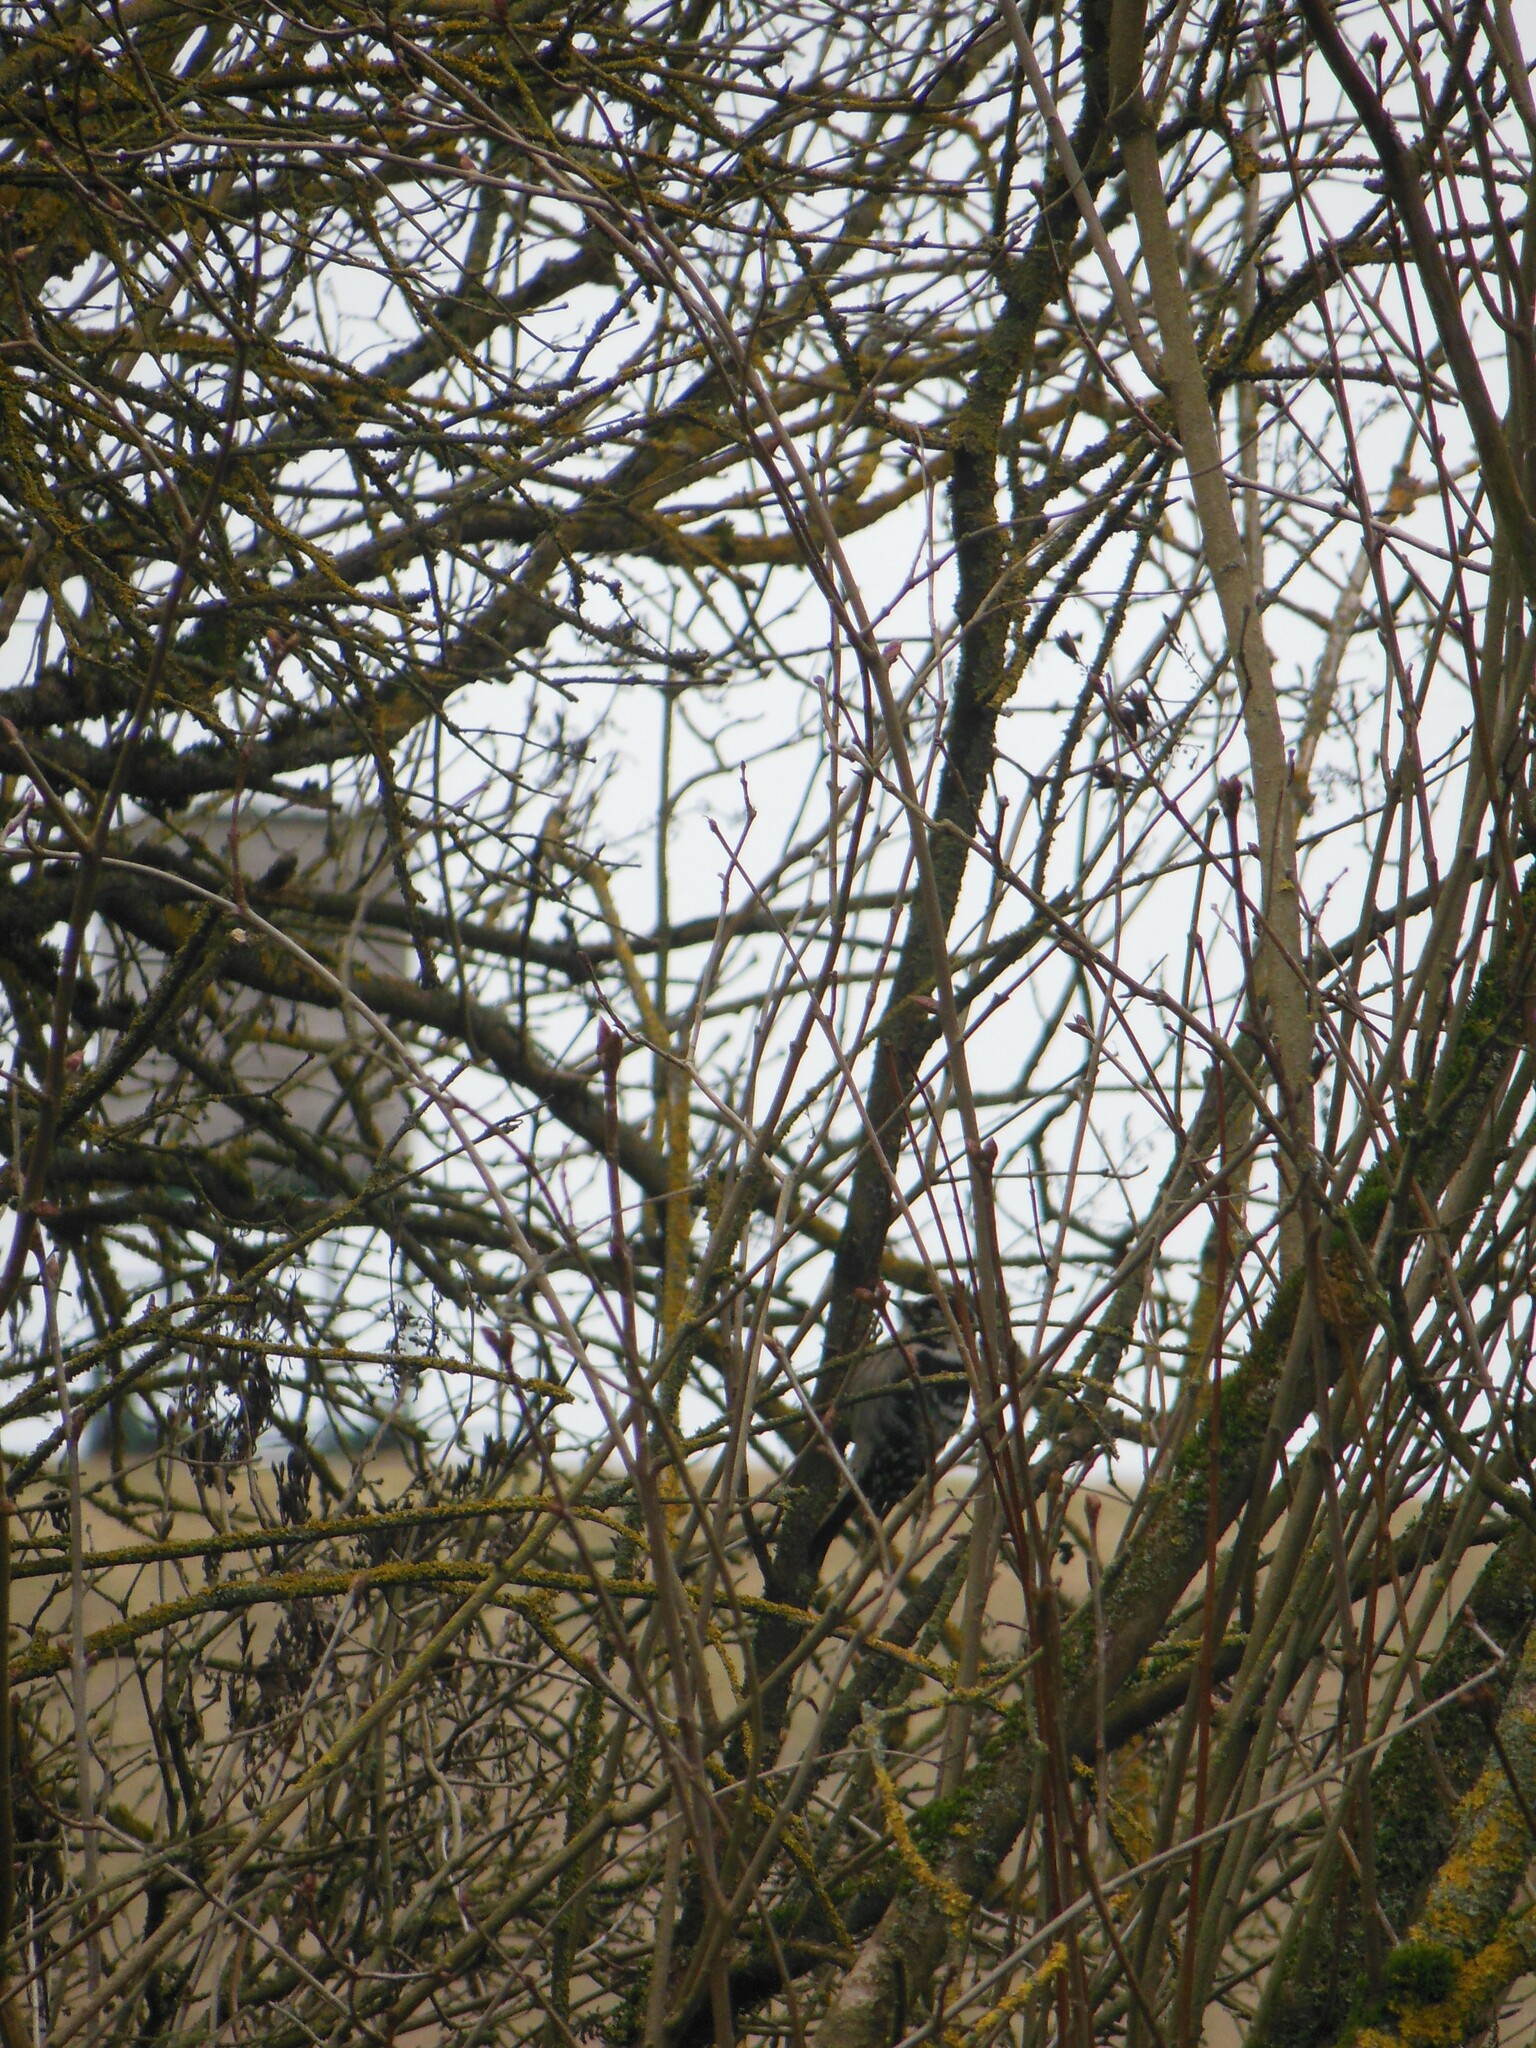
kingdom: Animalia
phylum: Chordata
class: Aves
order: Piciformes
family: Picidae
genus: Dryobates
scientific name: Dryobates minor
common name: Lesser spotted woodpecker
